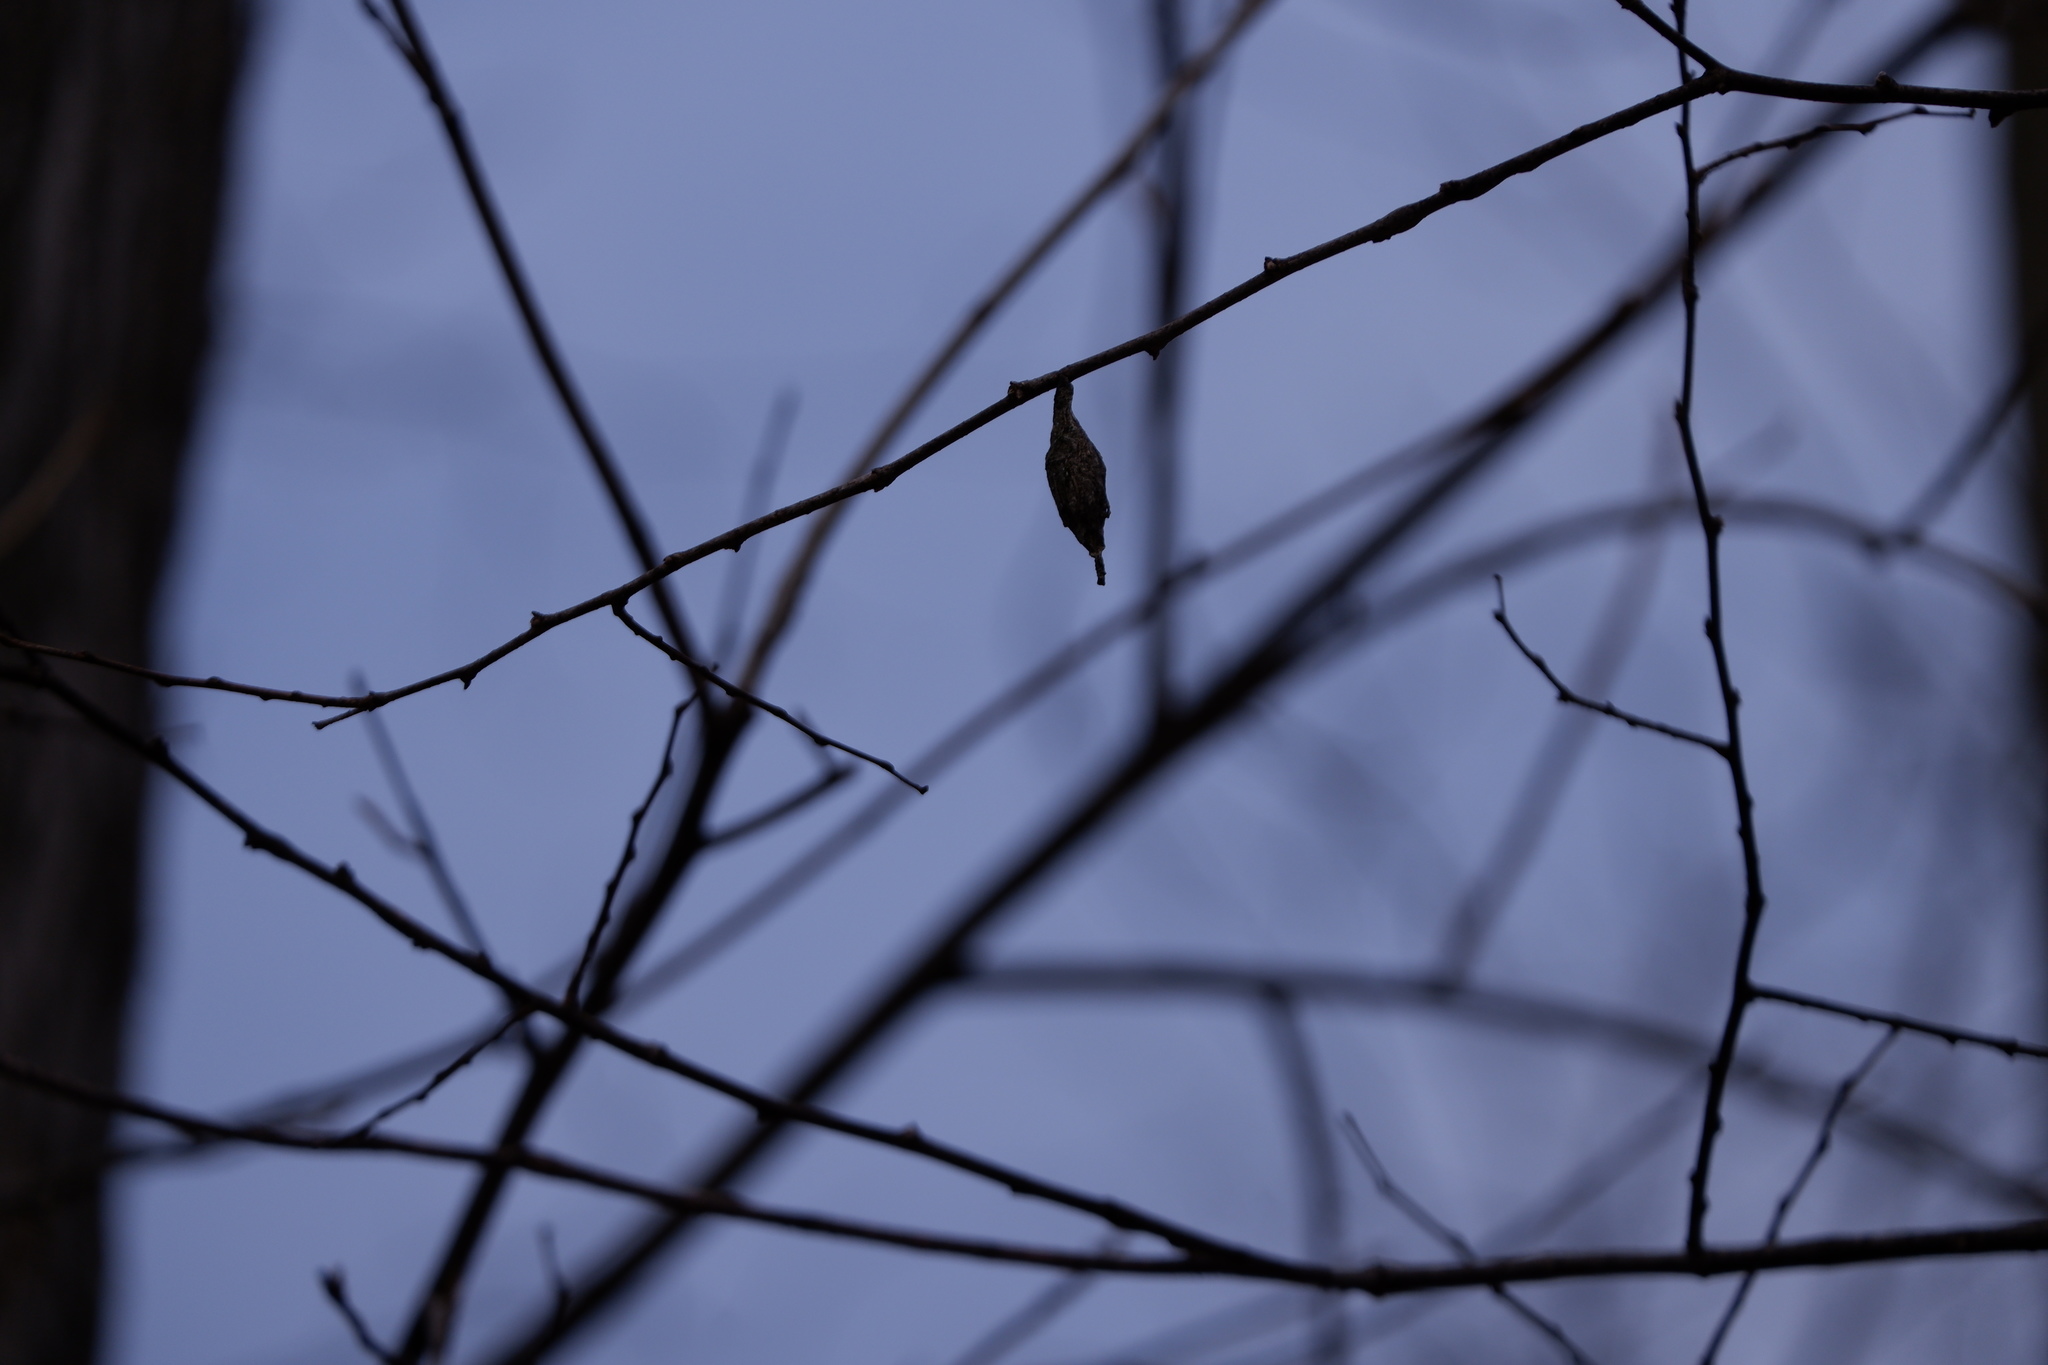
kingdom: Animalia
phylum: Arthropoda
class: Insecta
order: Lepidoptera
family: Psychidae
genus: Thyridopteryx
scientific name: Thyridopteryx ephemeraeformis
